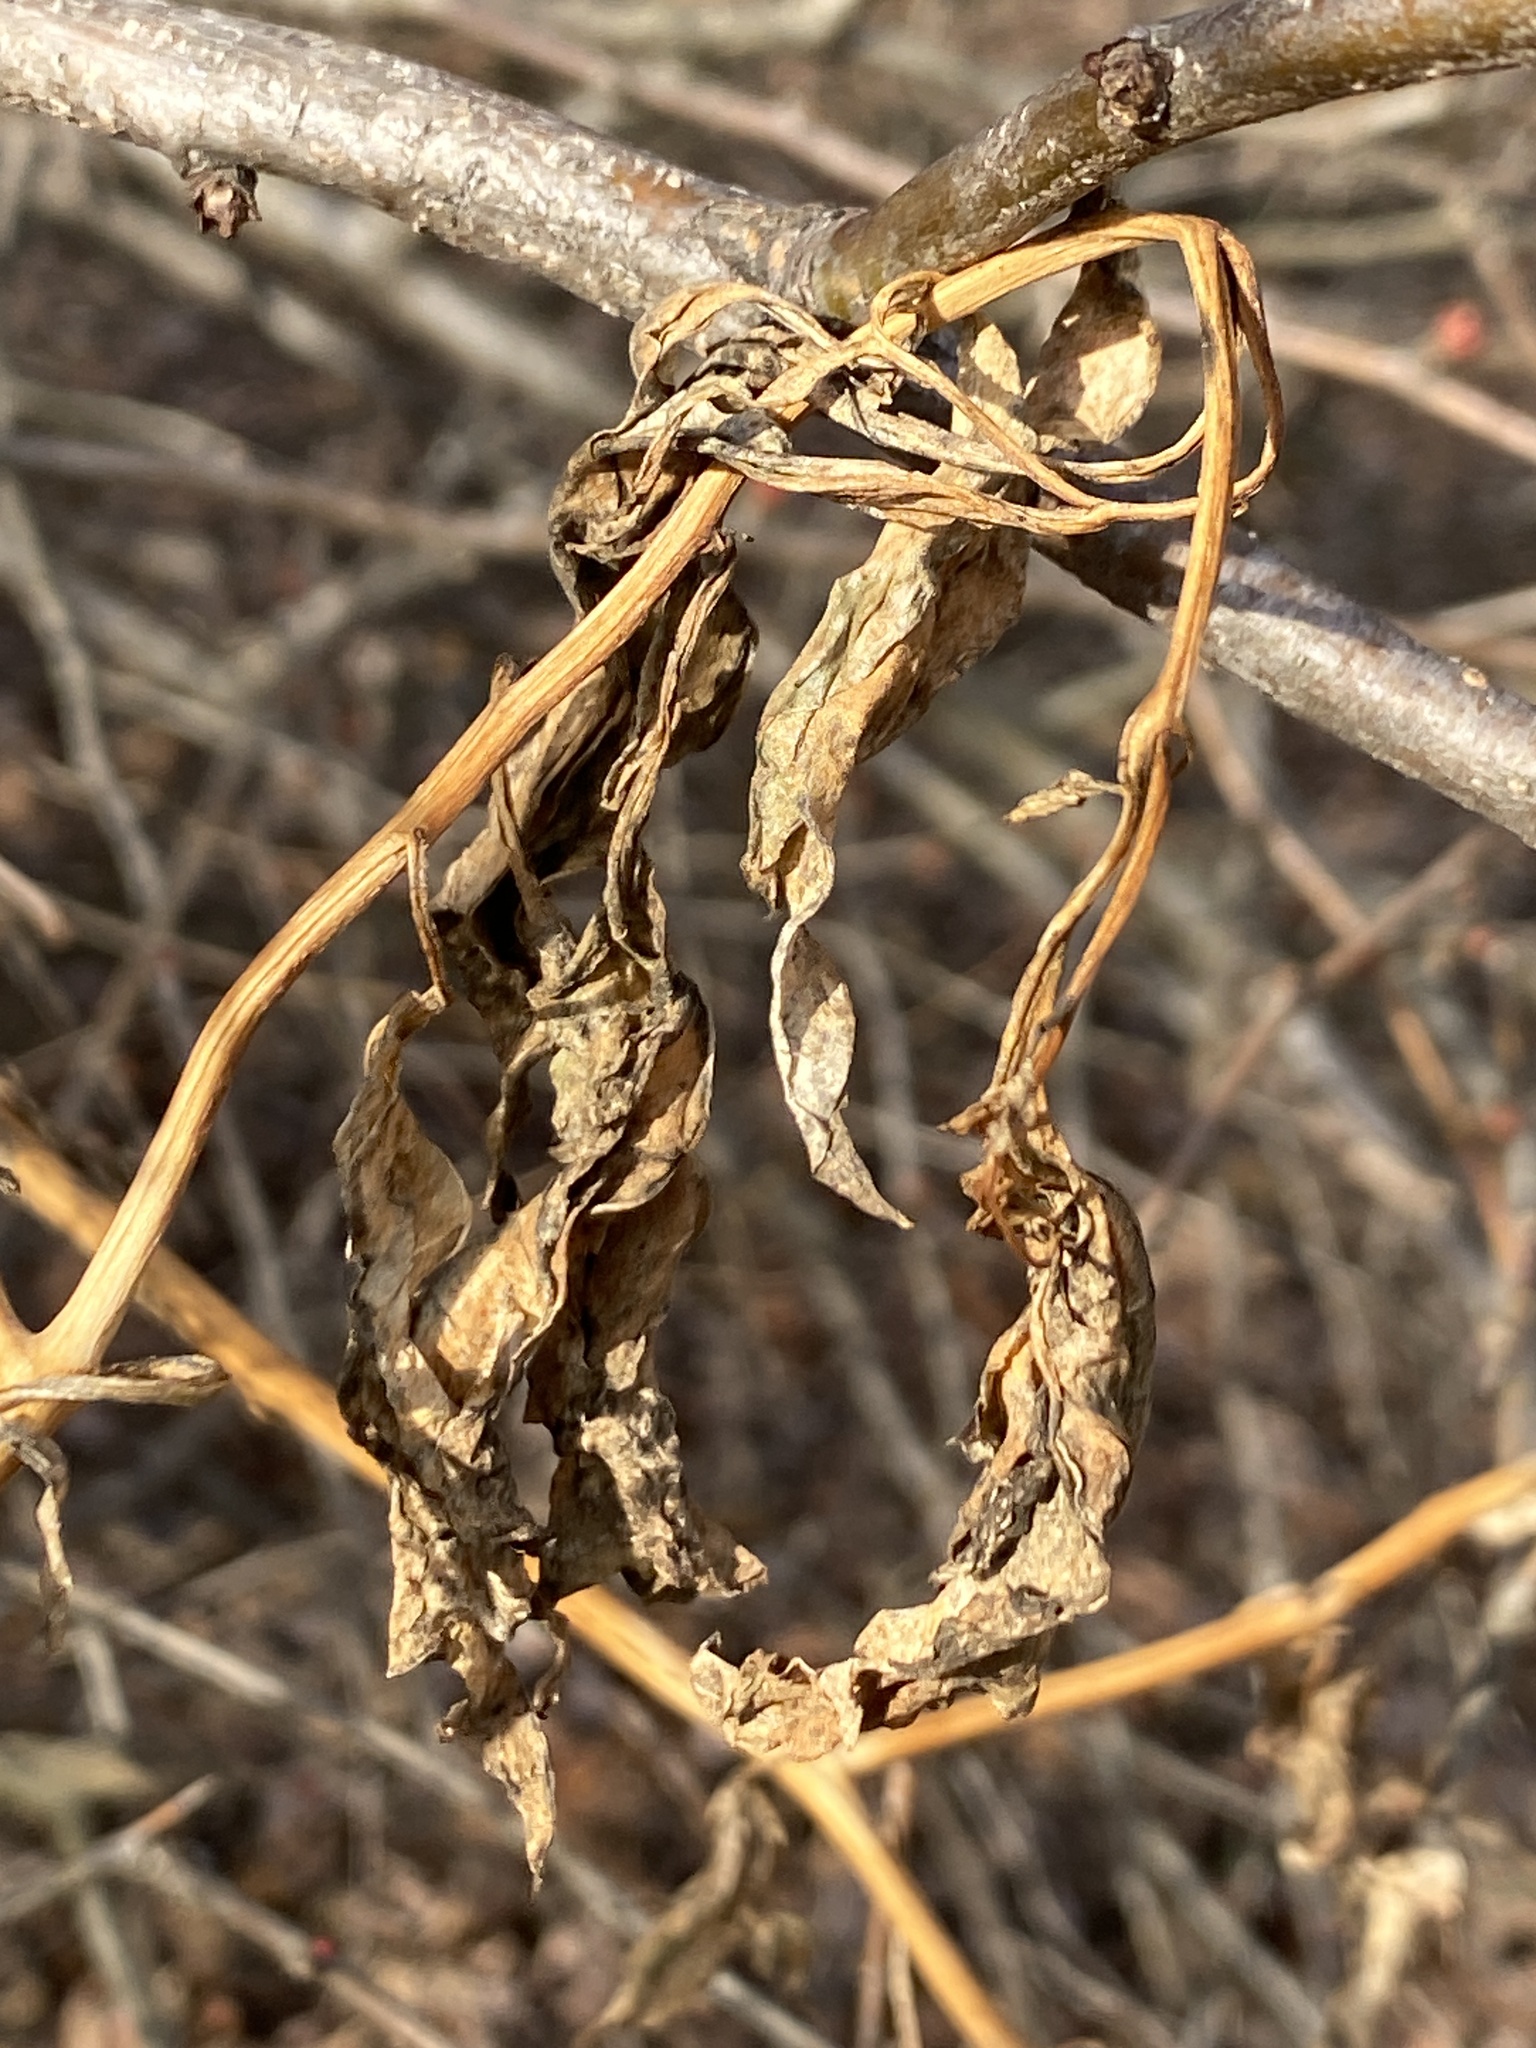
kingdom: Plantae
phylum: Tracheophyta
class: Magnoliopsida
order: Caryophyllales
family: Phytolaccaceae
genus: Phytolacca
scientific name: Phytolacca americana
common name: American pokeweed
